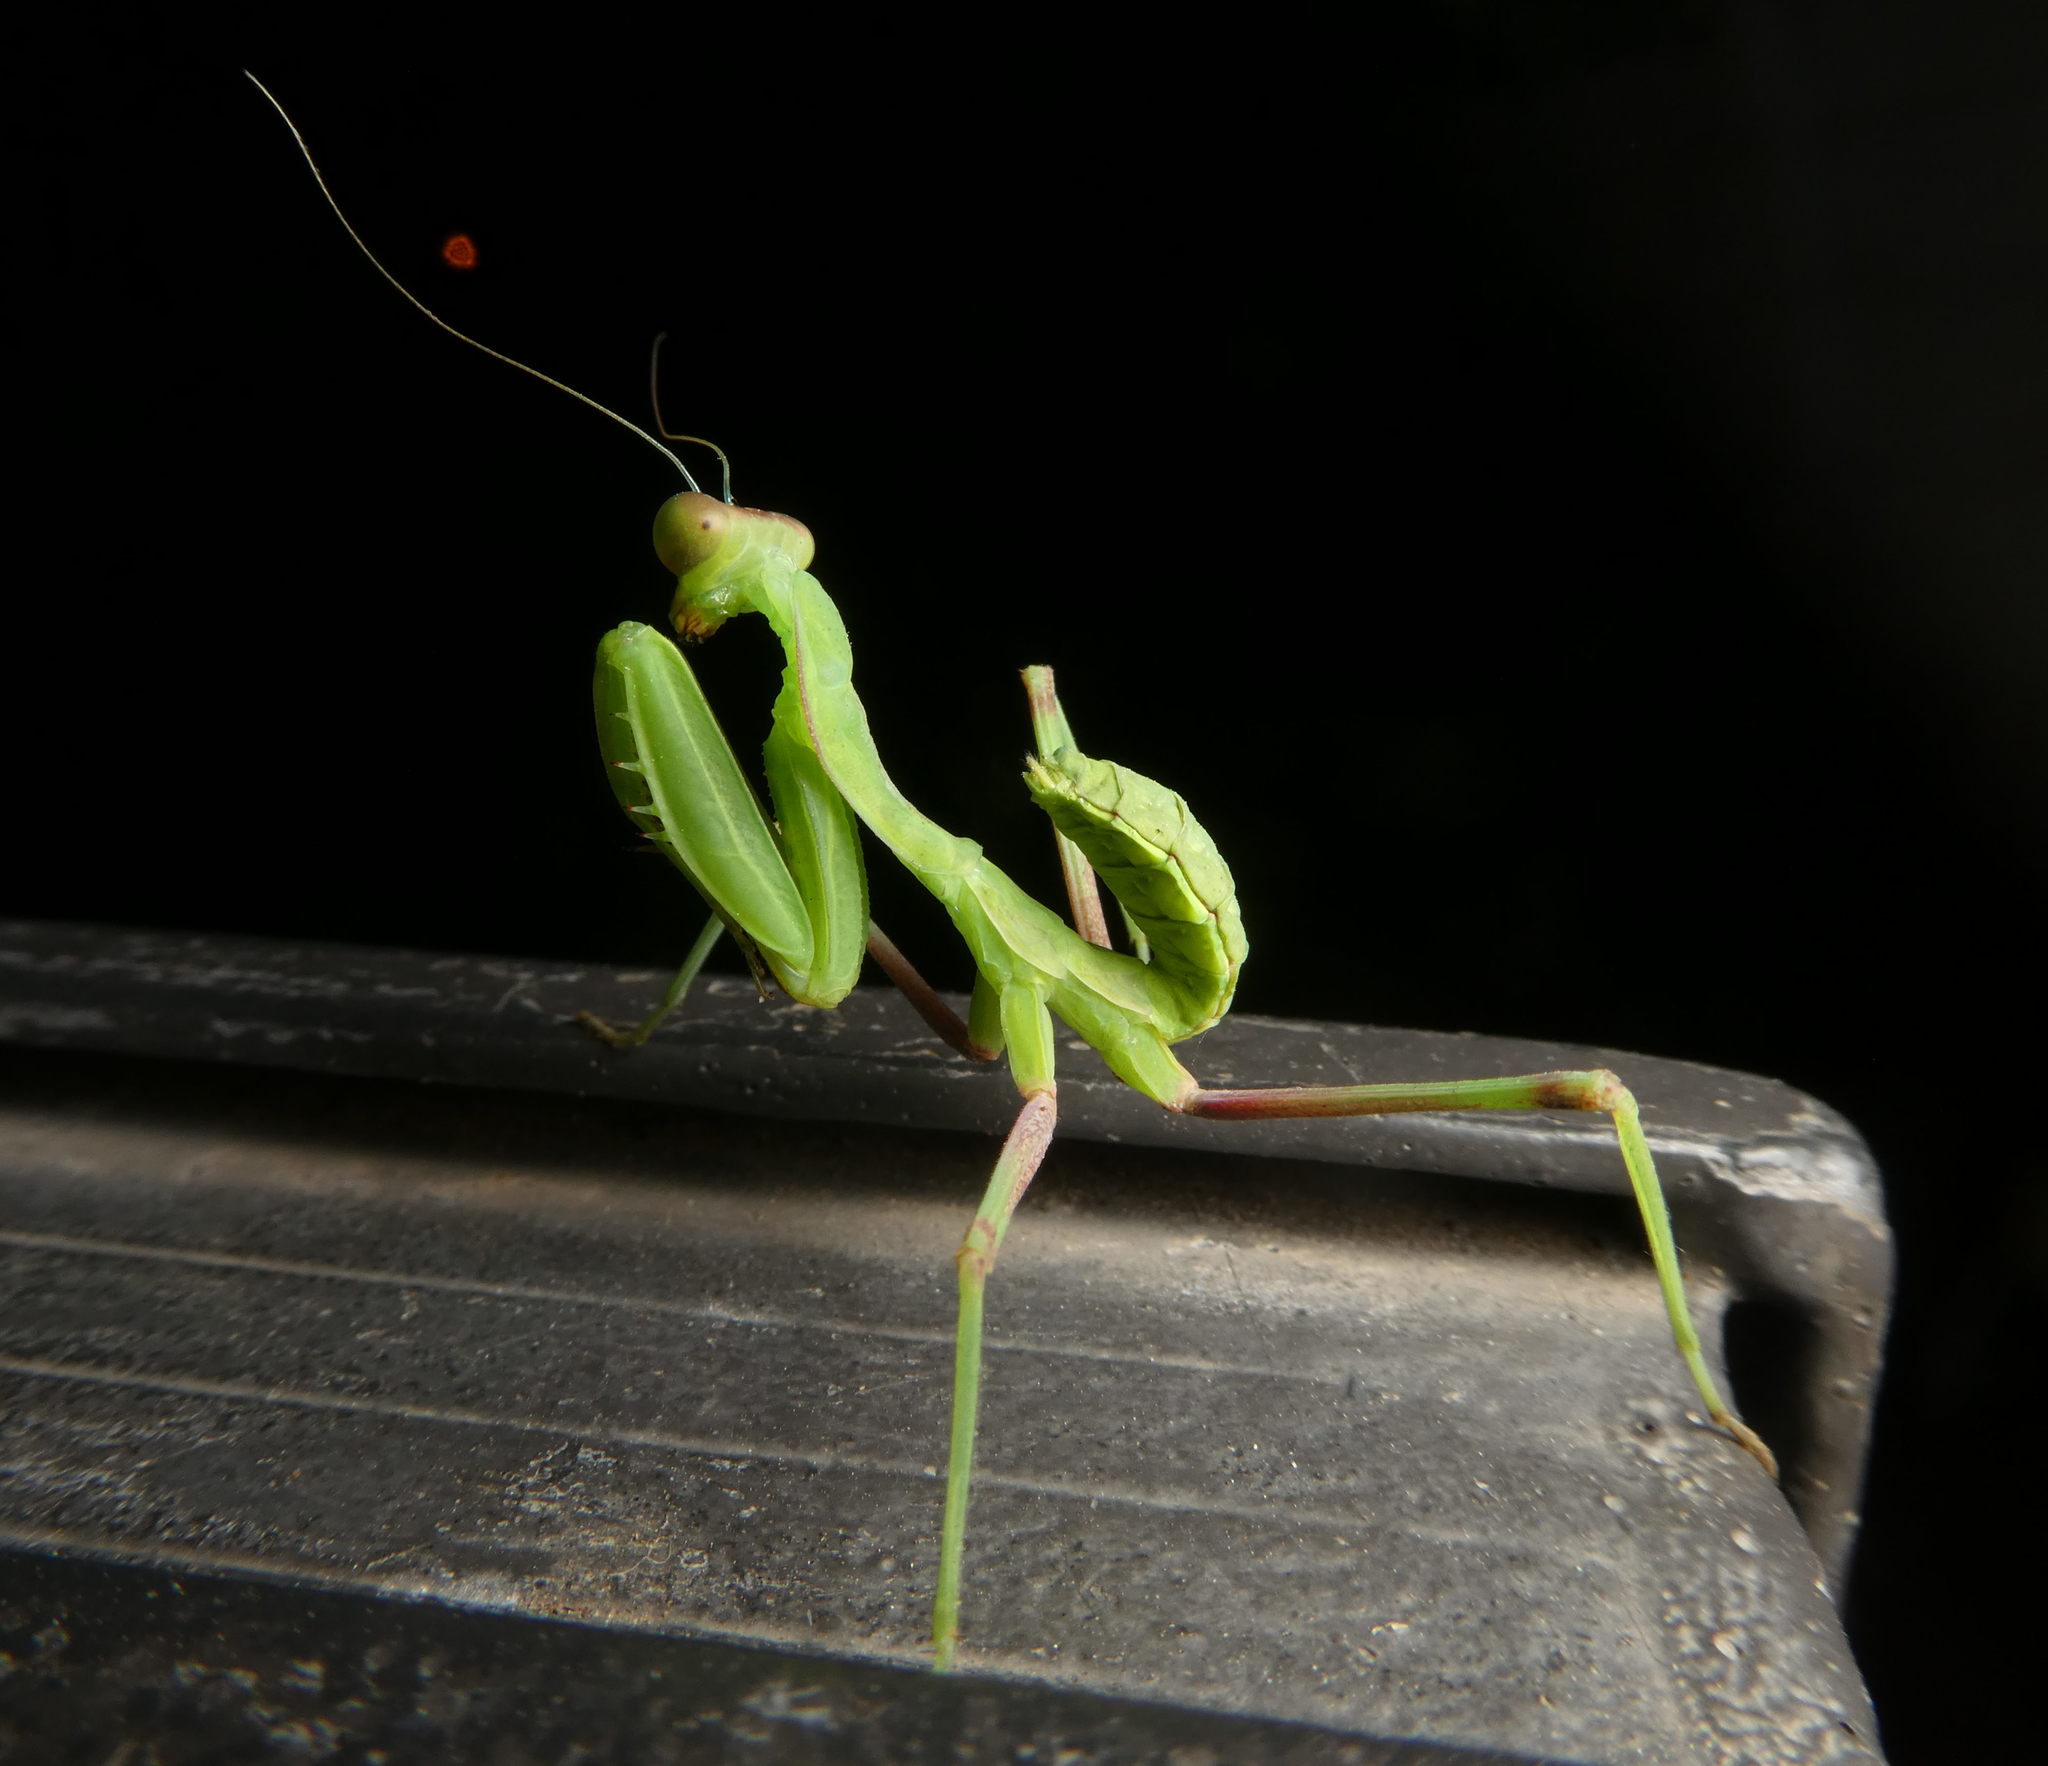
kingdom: Animalia
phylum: Arthropoda
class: Insecta
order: Mantodea
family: Mantidae
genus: Sphodromantis
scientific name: Sphodromantis viridis
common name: Giant african mantis
